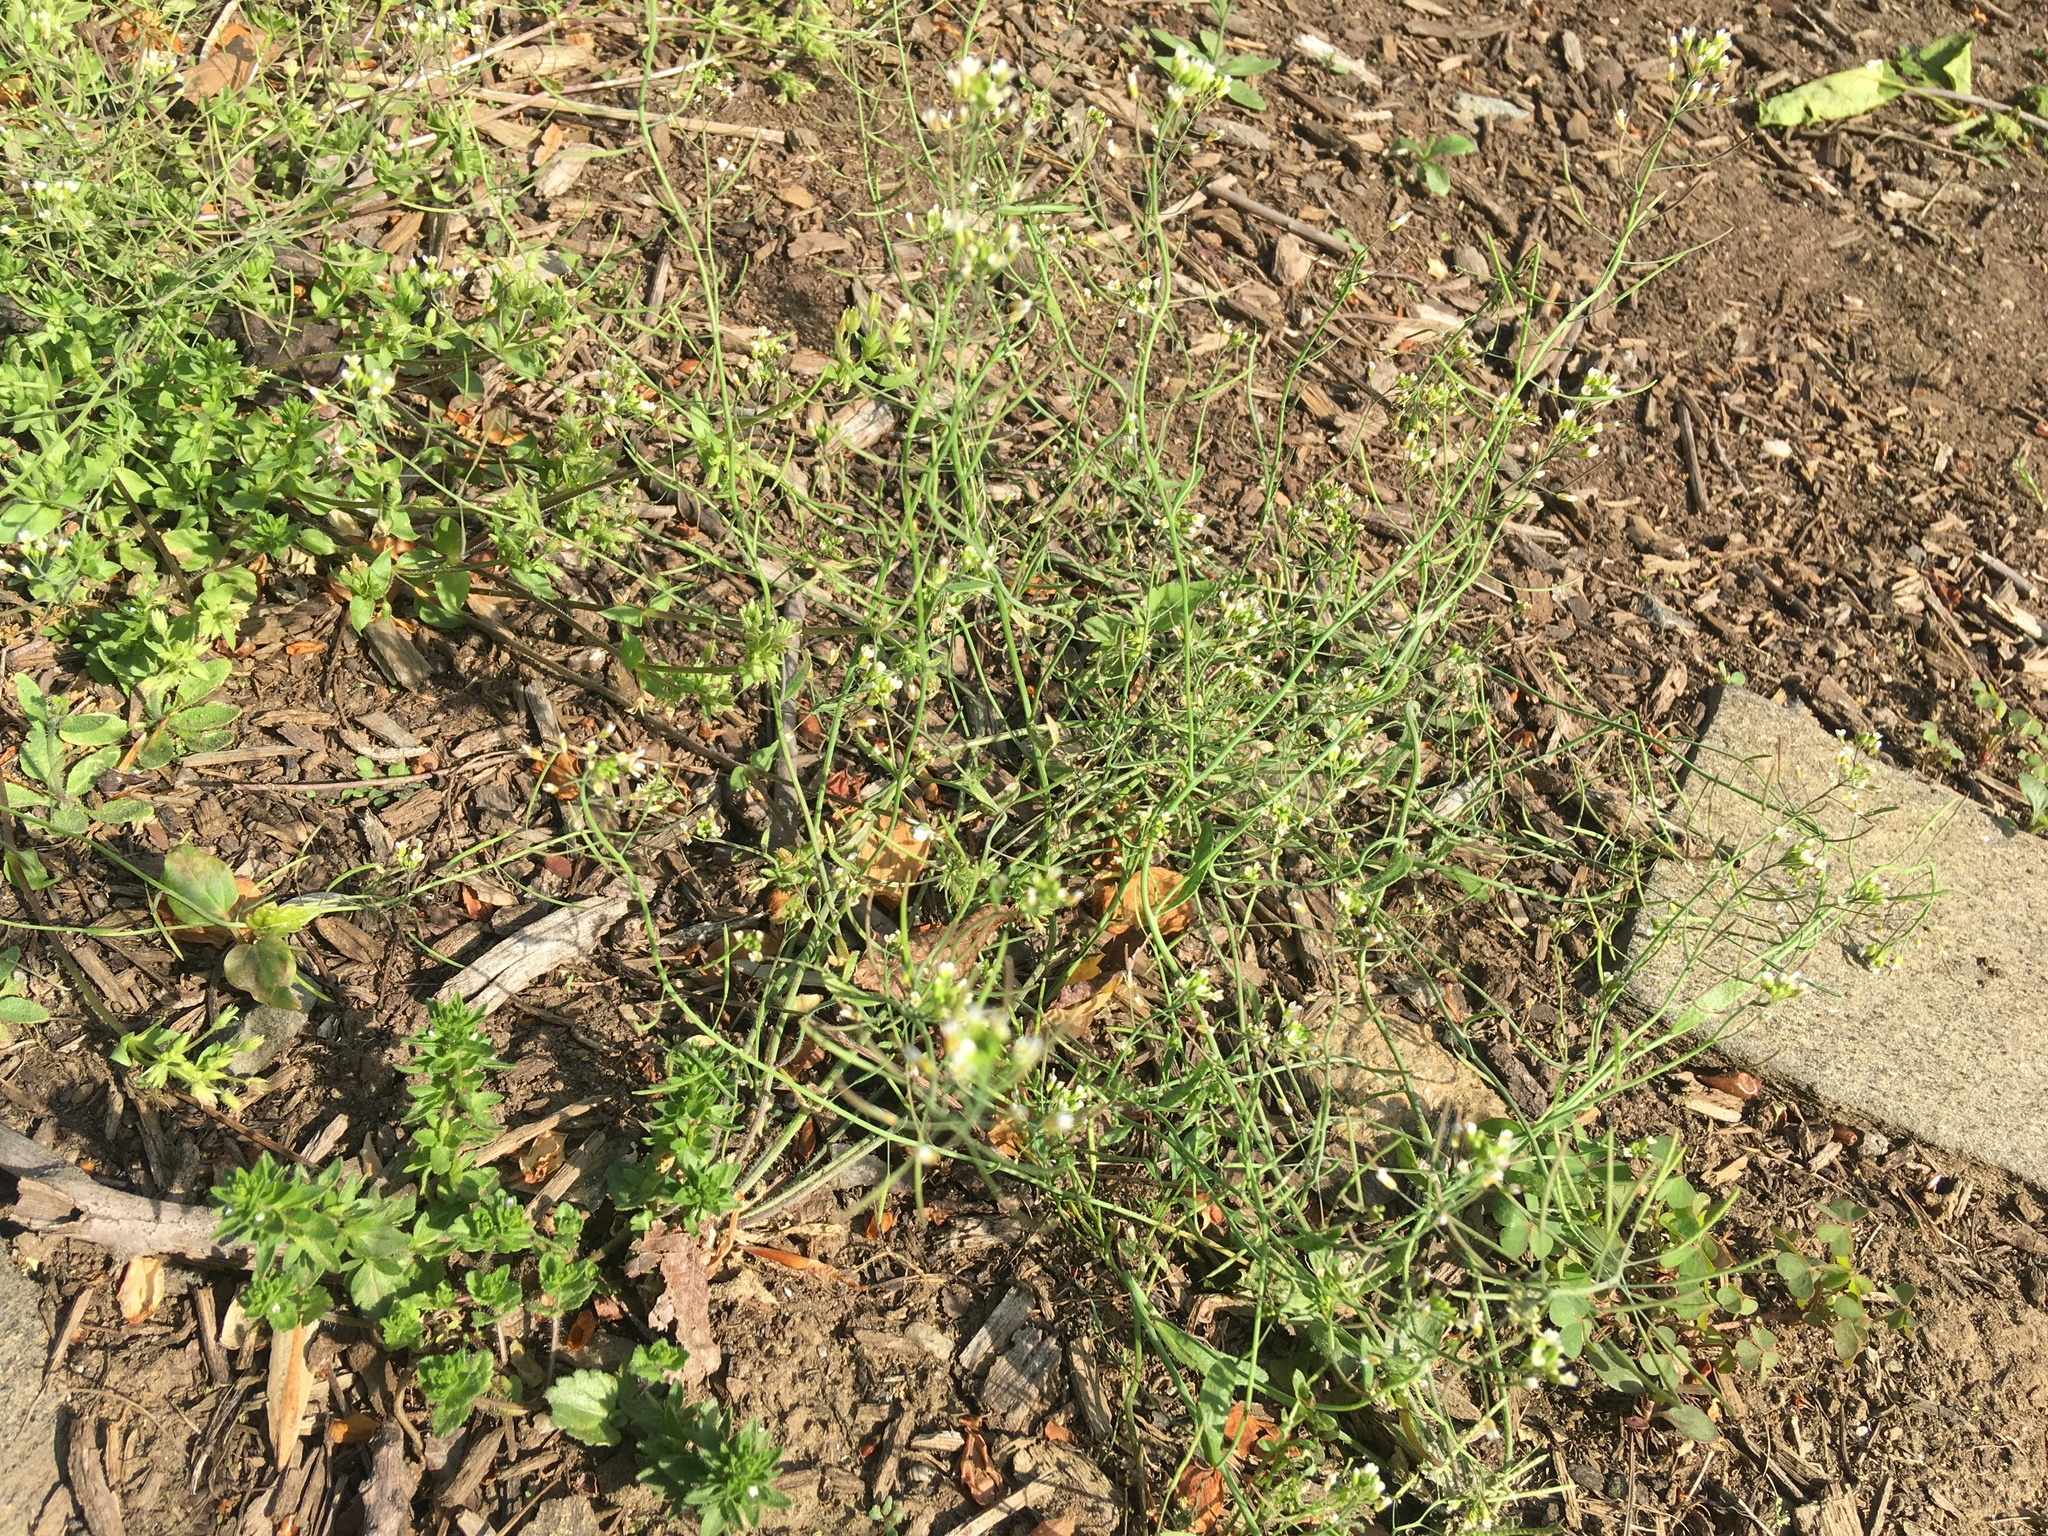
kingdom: Plantae
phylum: Tracheophyta
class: Magnoliopsida
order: Brassicales
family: Brassicaceae
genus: Arabidopsis
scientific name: Arabidopsis thaliana
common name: Thale cress
